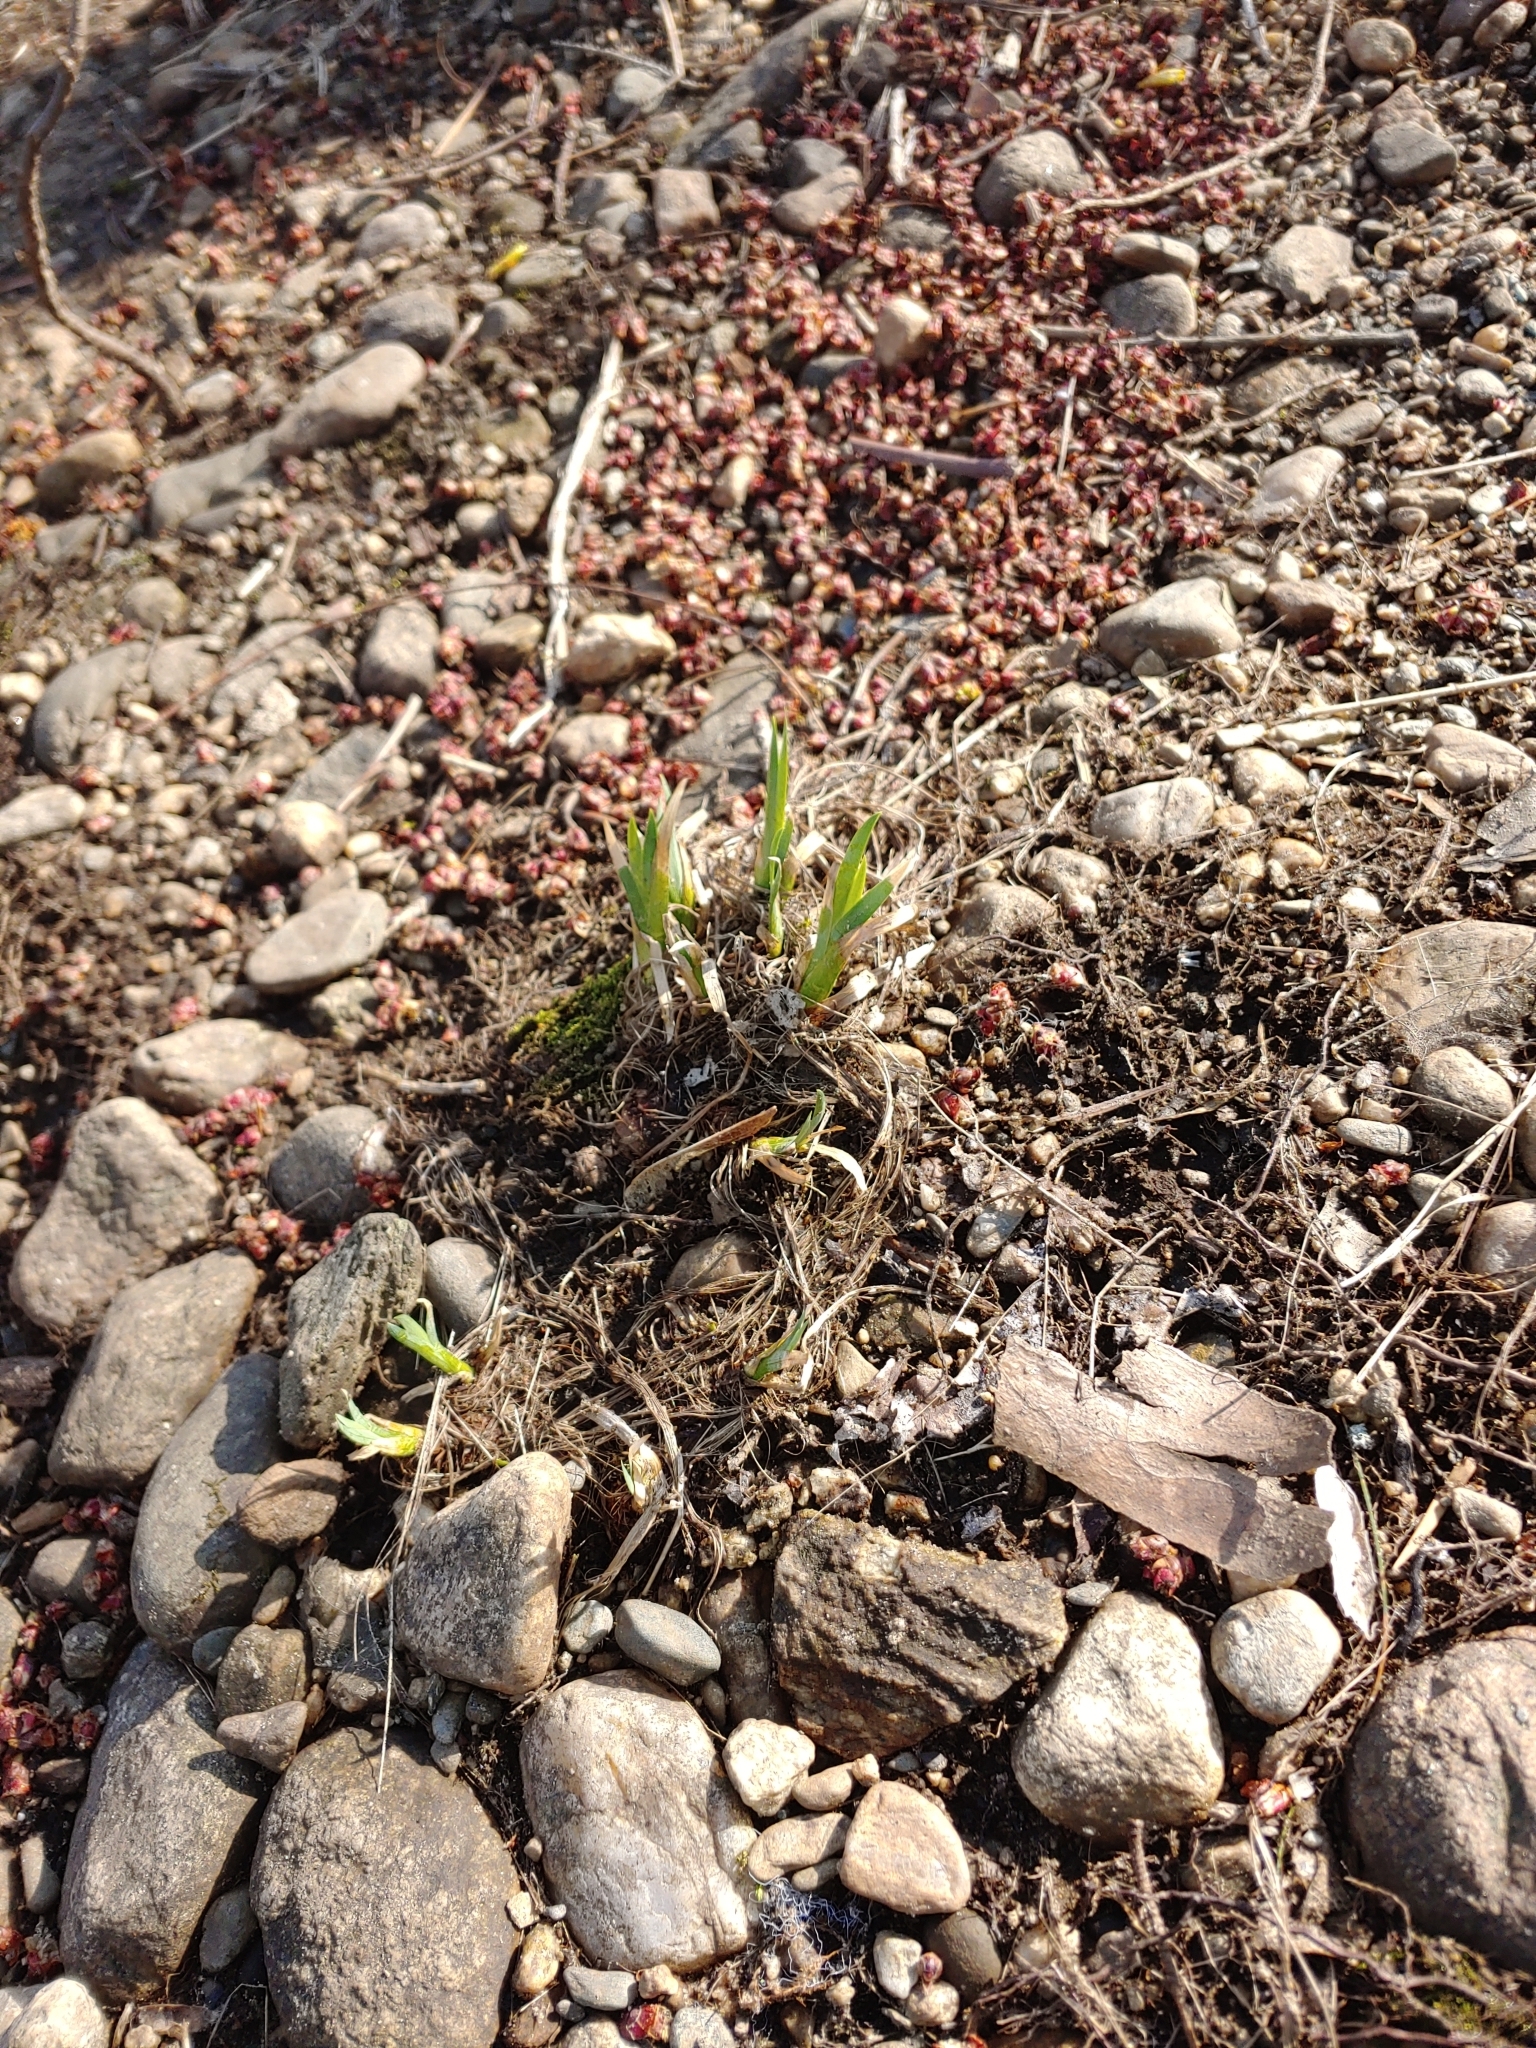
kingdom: Plantae
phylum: Tracheophyta
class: Liliopsida
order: Asparagales
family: Iridaceae
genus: Iris
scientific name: Iris versicolor
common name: Purple iris
